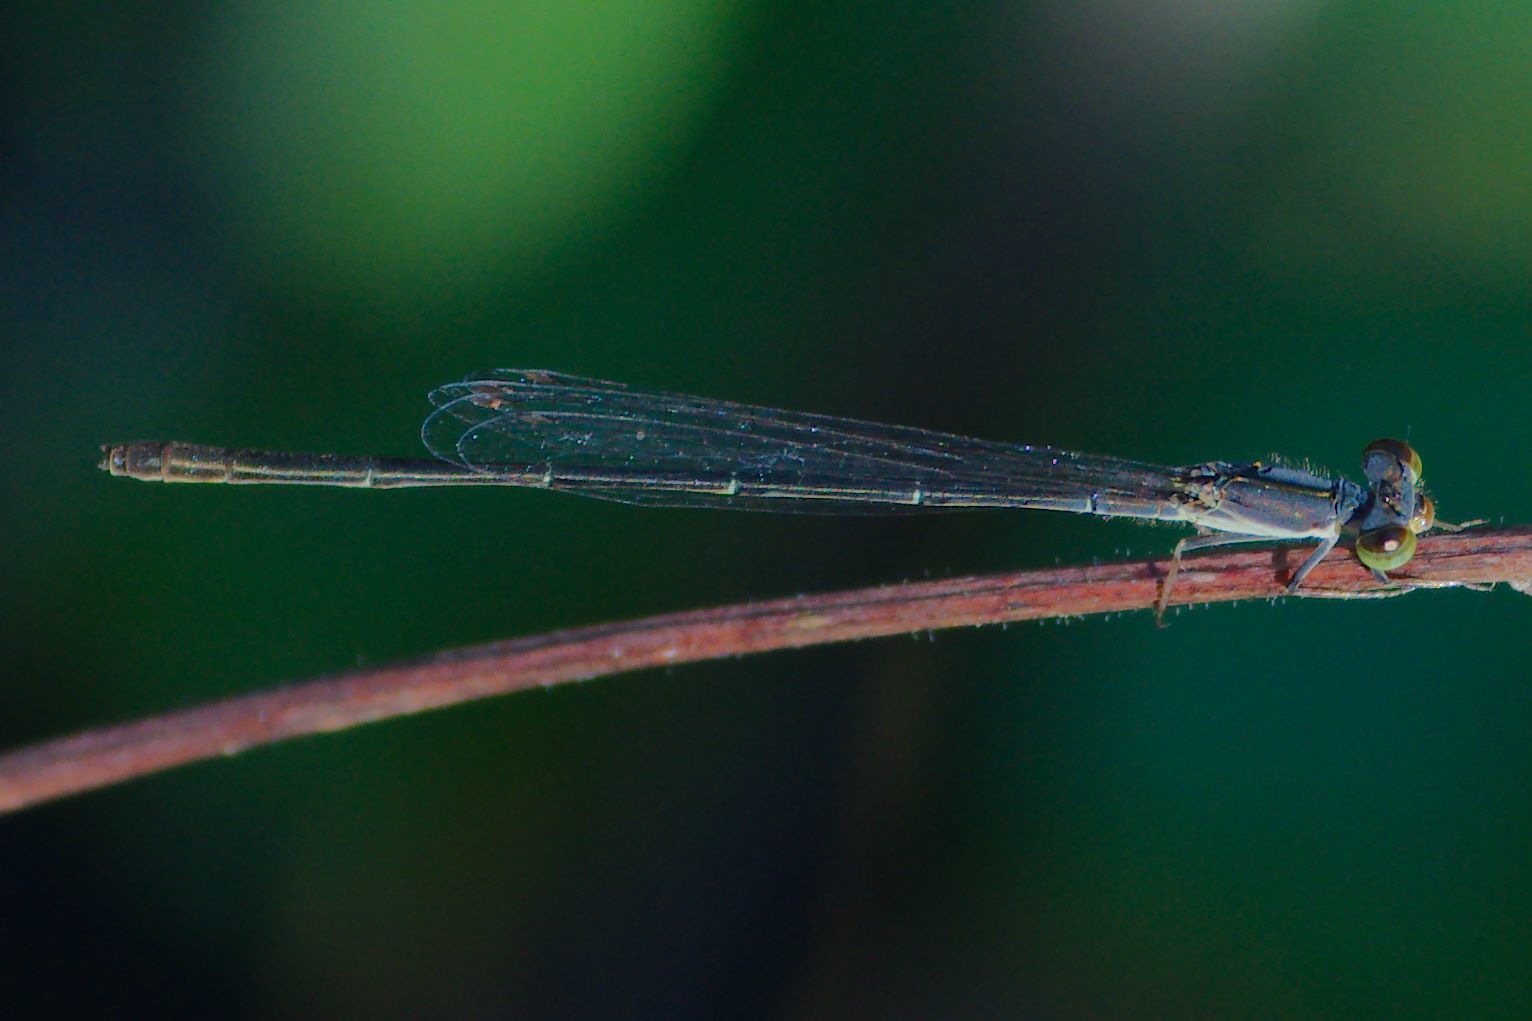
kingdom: Animalia
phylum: Arthropoda
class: Insecta
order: Odonata
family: Coenagrionidae
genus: Ischnura
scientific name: Ischnura prognata
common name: Furtive forktail
